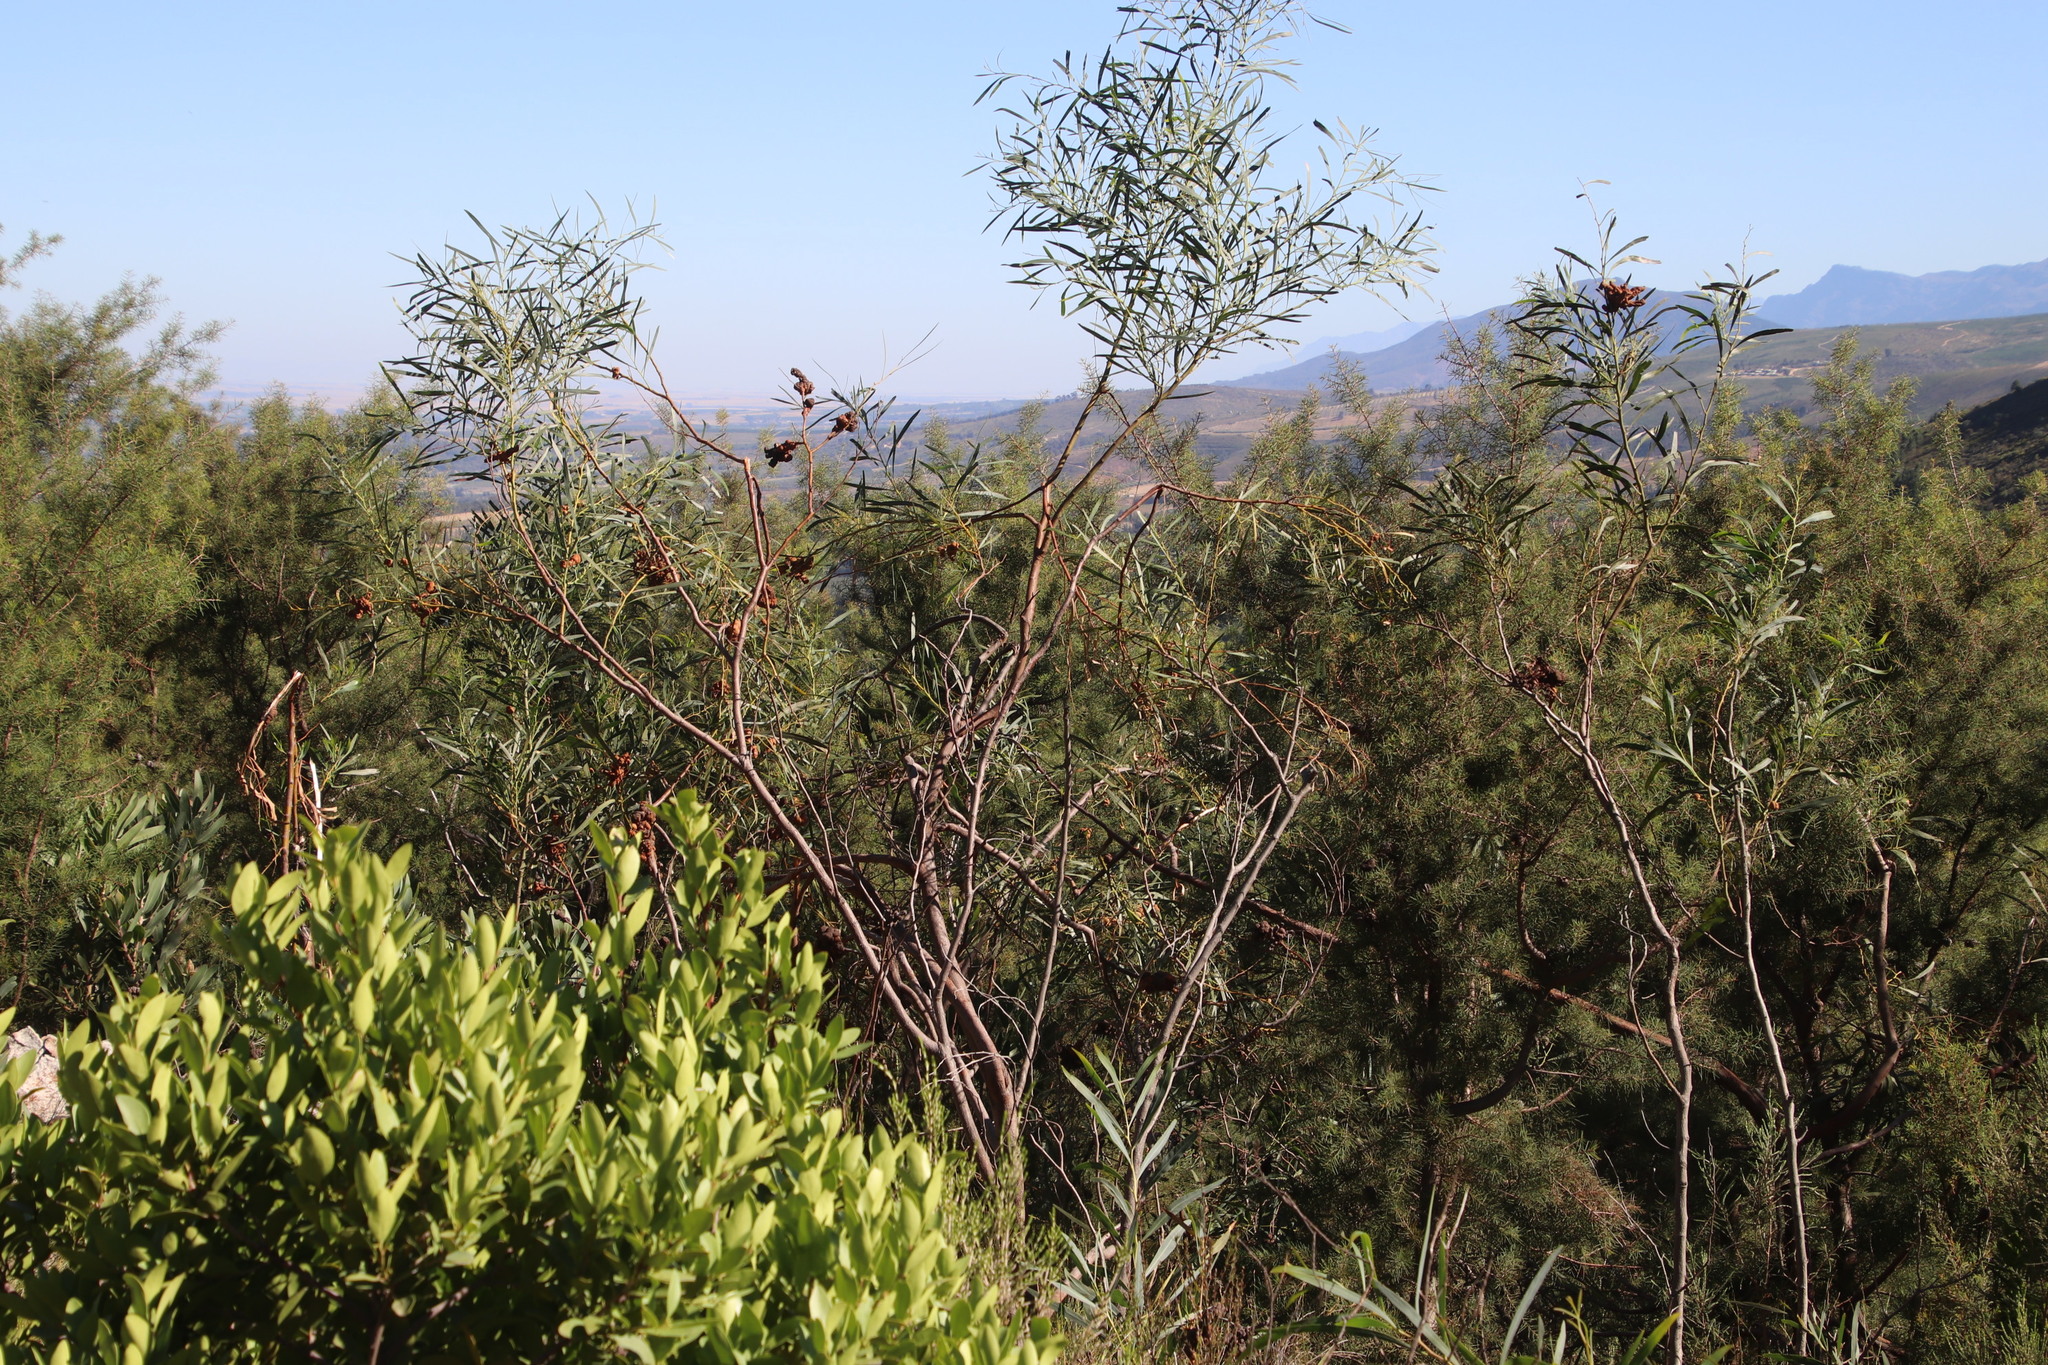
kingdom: Plantae
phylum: Tracheophyta
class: Magnoliopsida
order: Fabales
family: Fabaceae
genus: Acacia
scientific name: Acacia saligna
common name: Orange wattle
